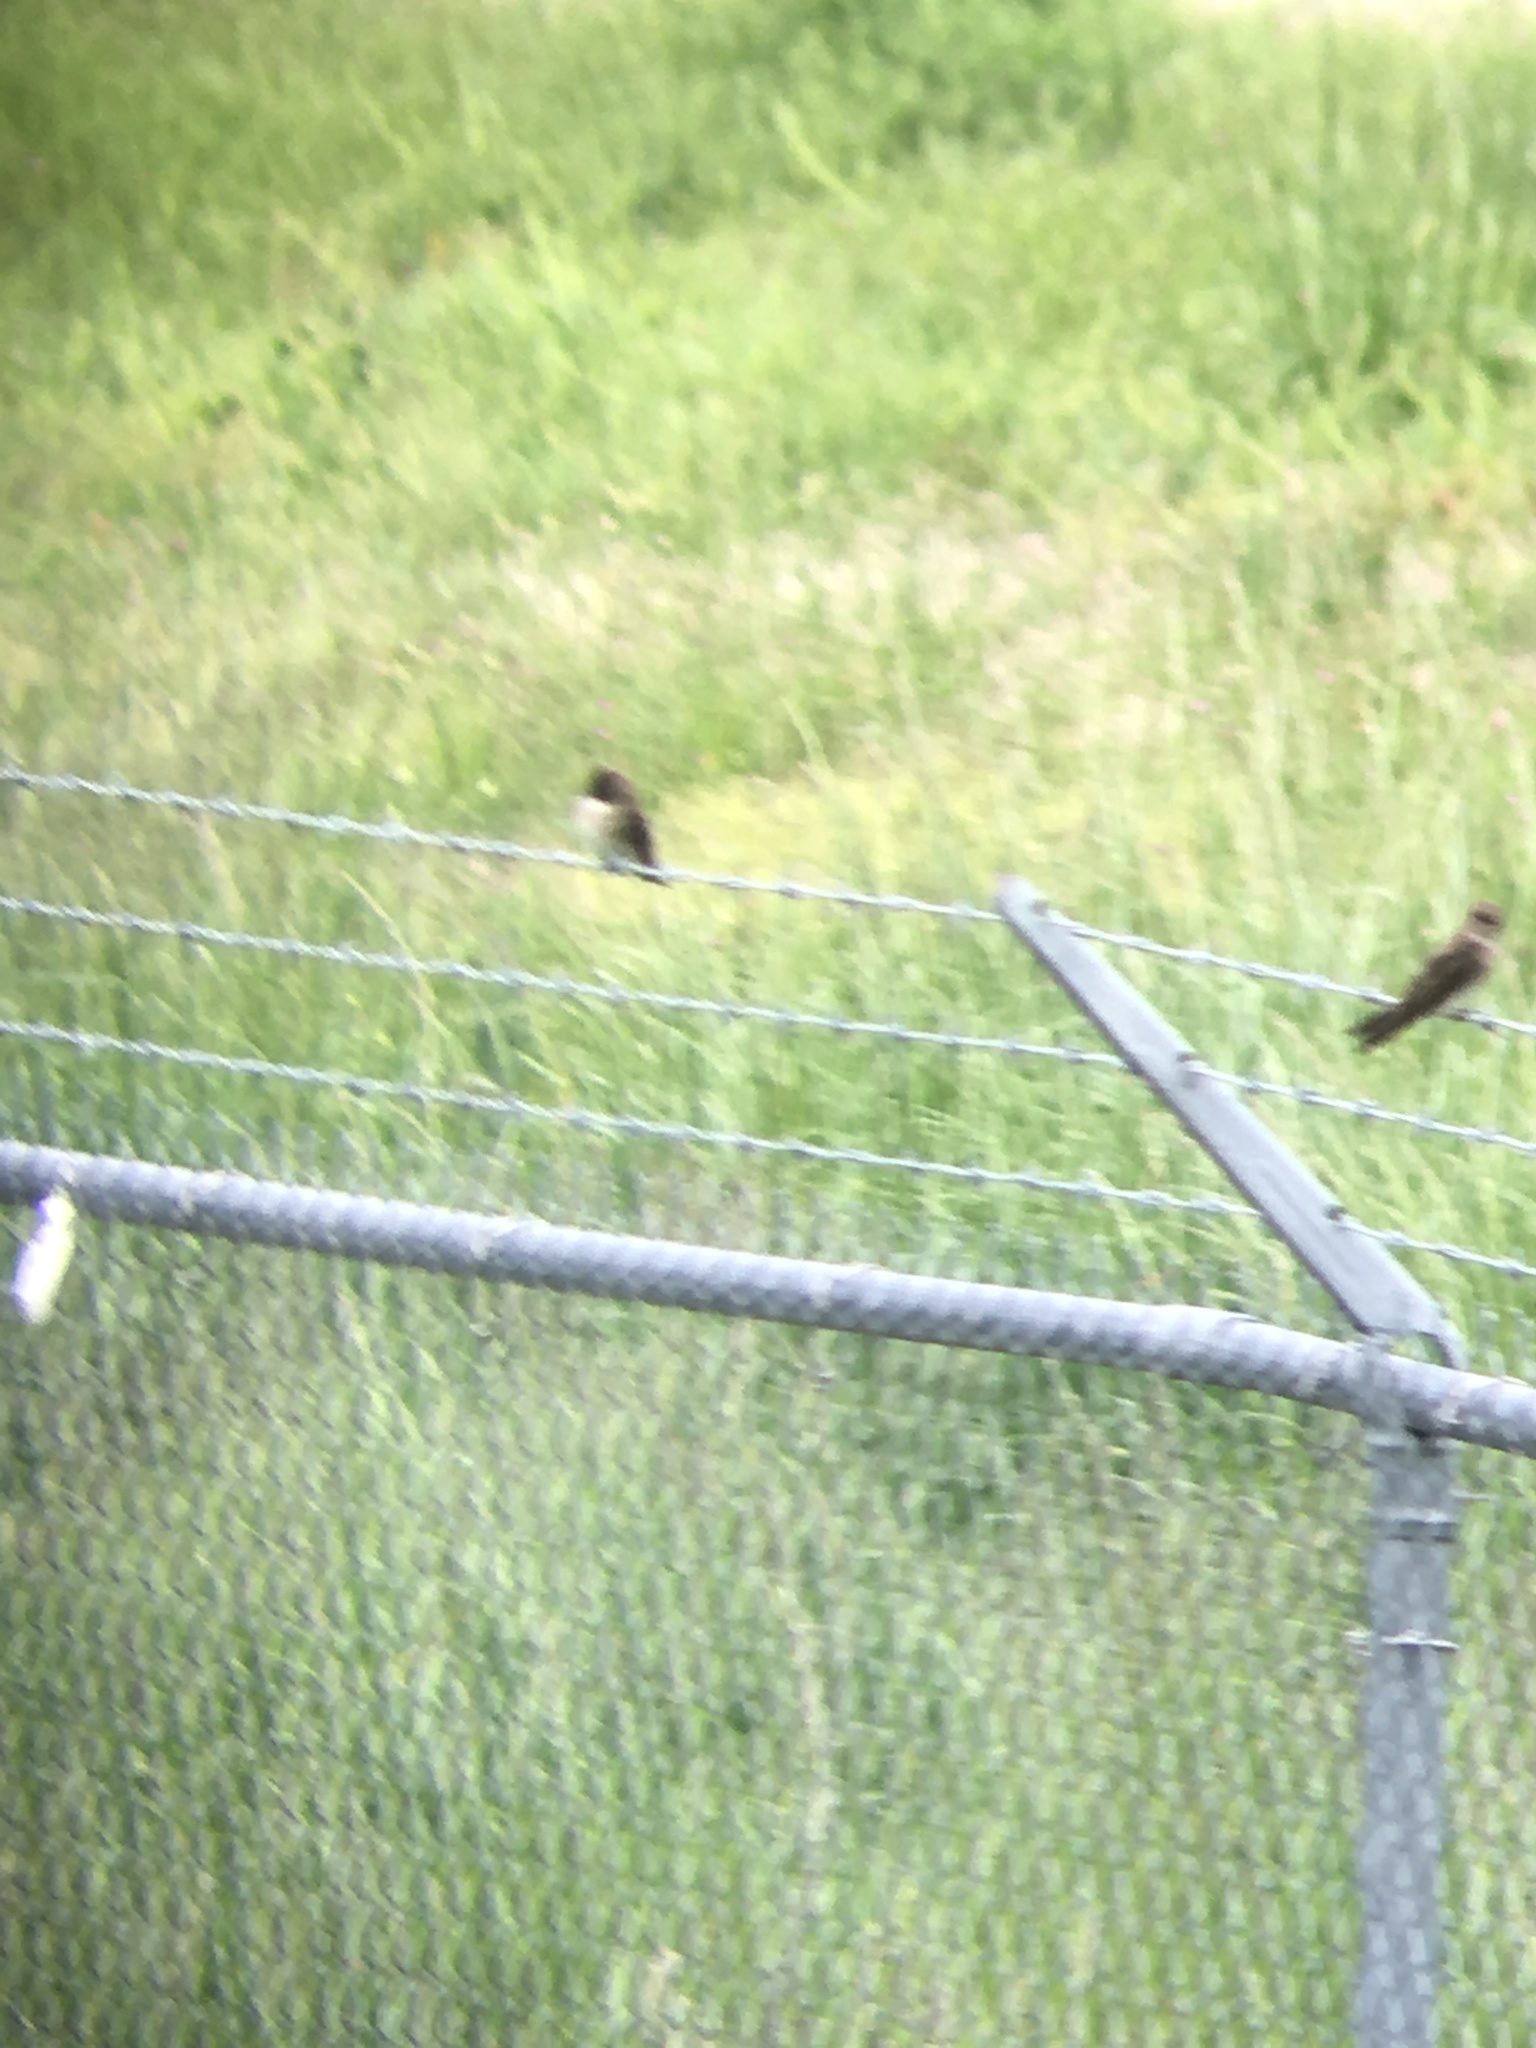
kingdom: Animalia
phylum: Chordata
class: Aves
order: Passeriformes
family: Hirundinidae
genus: Stelgidopteryx
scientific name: Stelgidopteryx serripennis
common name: Northern rough-winged swallow
